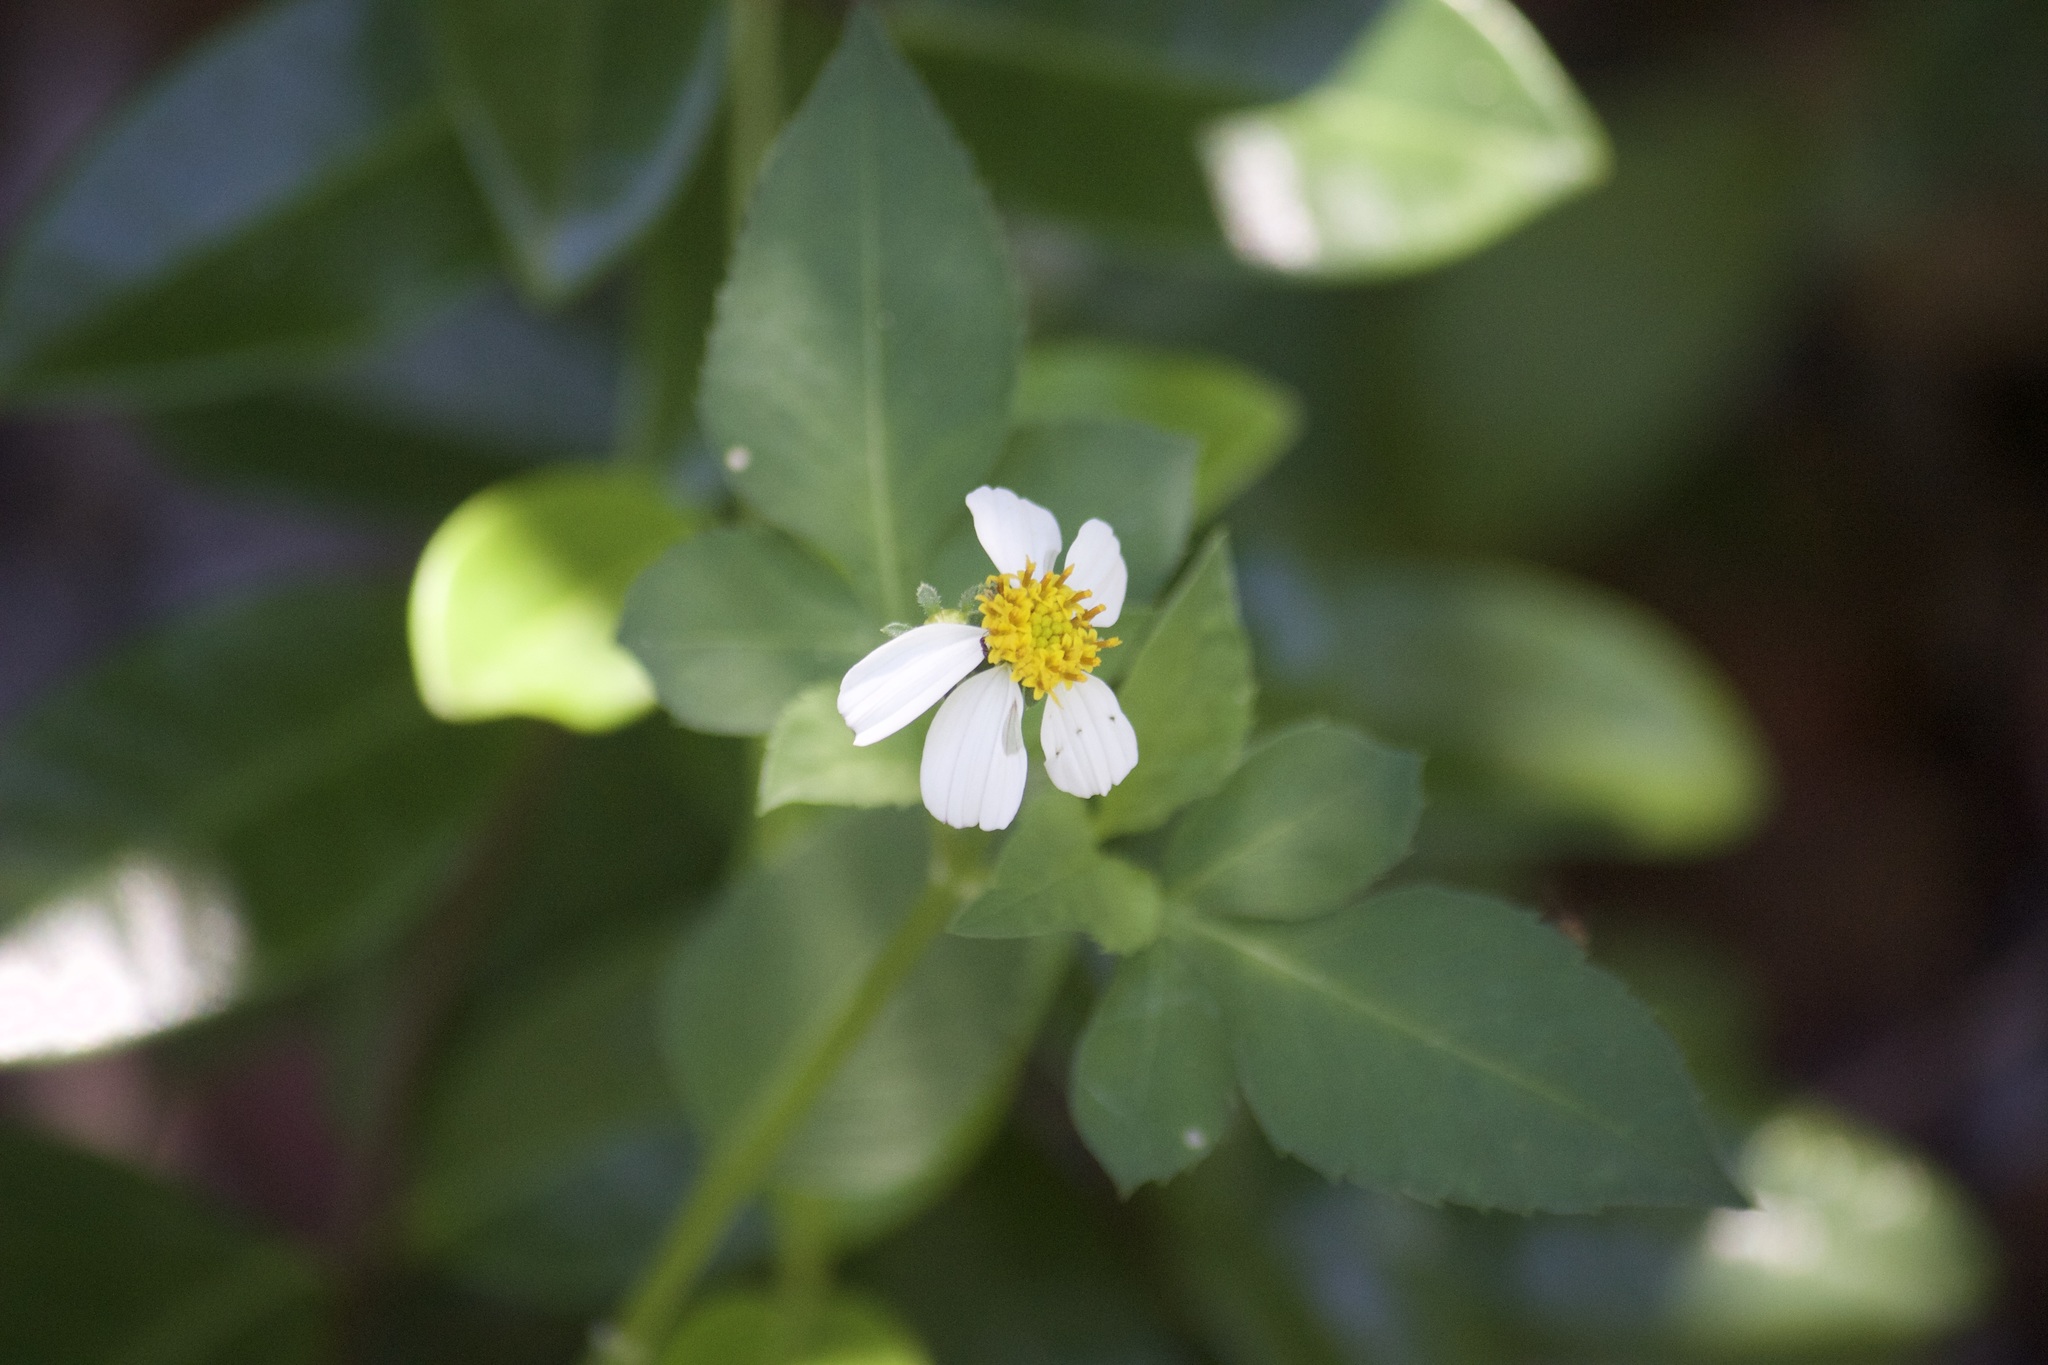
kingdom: Plantae
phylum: Tracheophyta
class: Magnoliopsida
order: Asterales
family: Asteraceae
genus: Bidens
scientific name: Bidens alba
